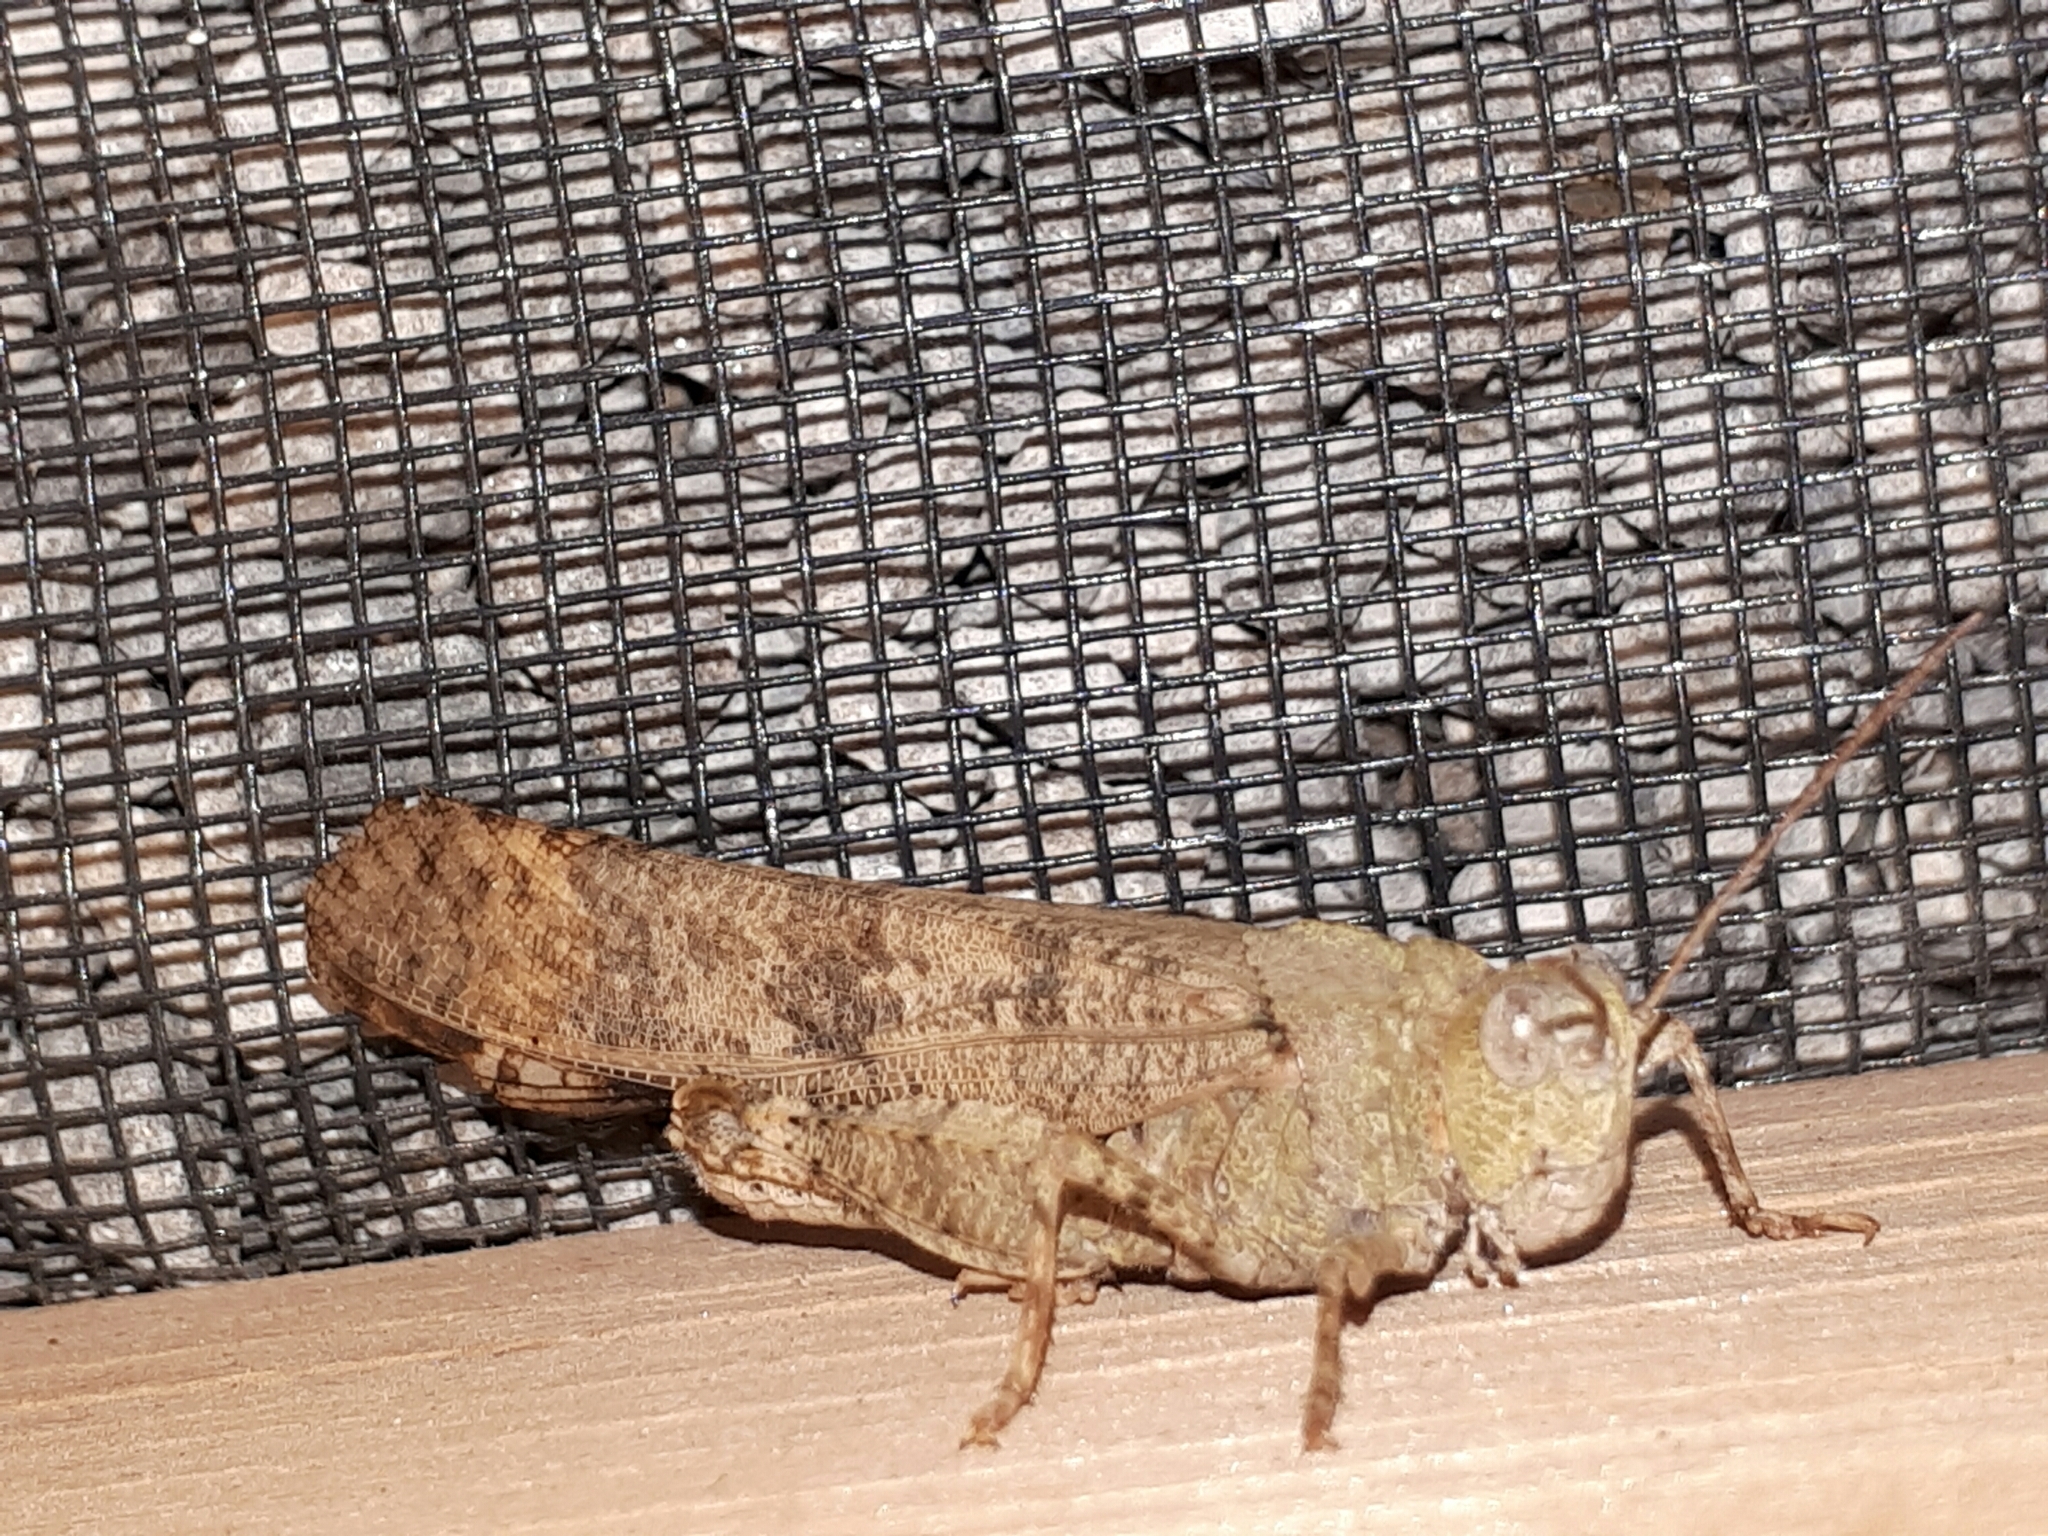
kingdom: Animalia
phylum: Arthropoda
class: Insecta
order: Orthoptera
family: Acrididae
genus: Dissosteira
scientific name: Dissosteira carolina
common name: Carolina grasshopper
